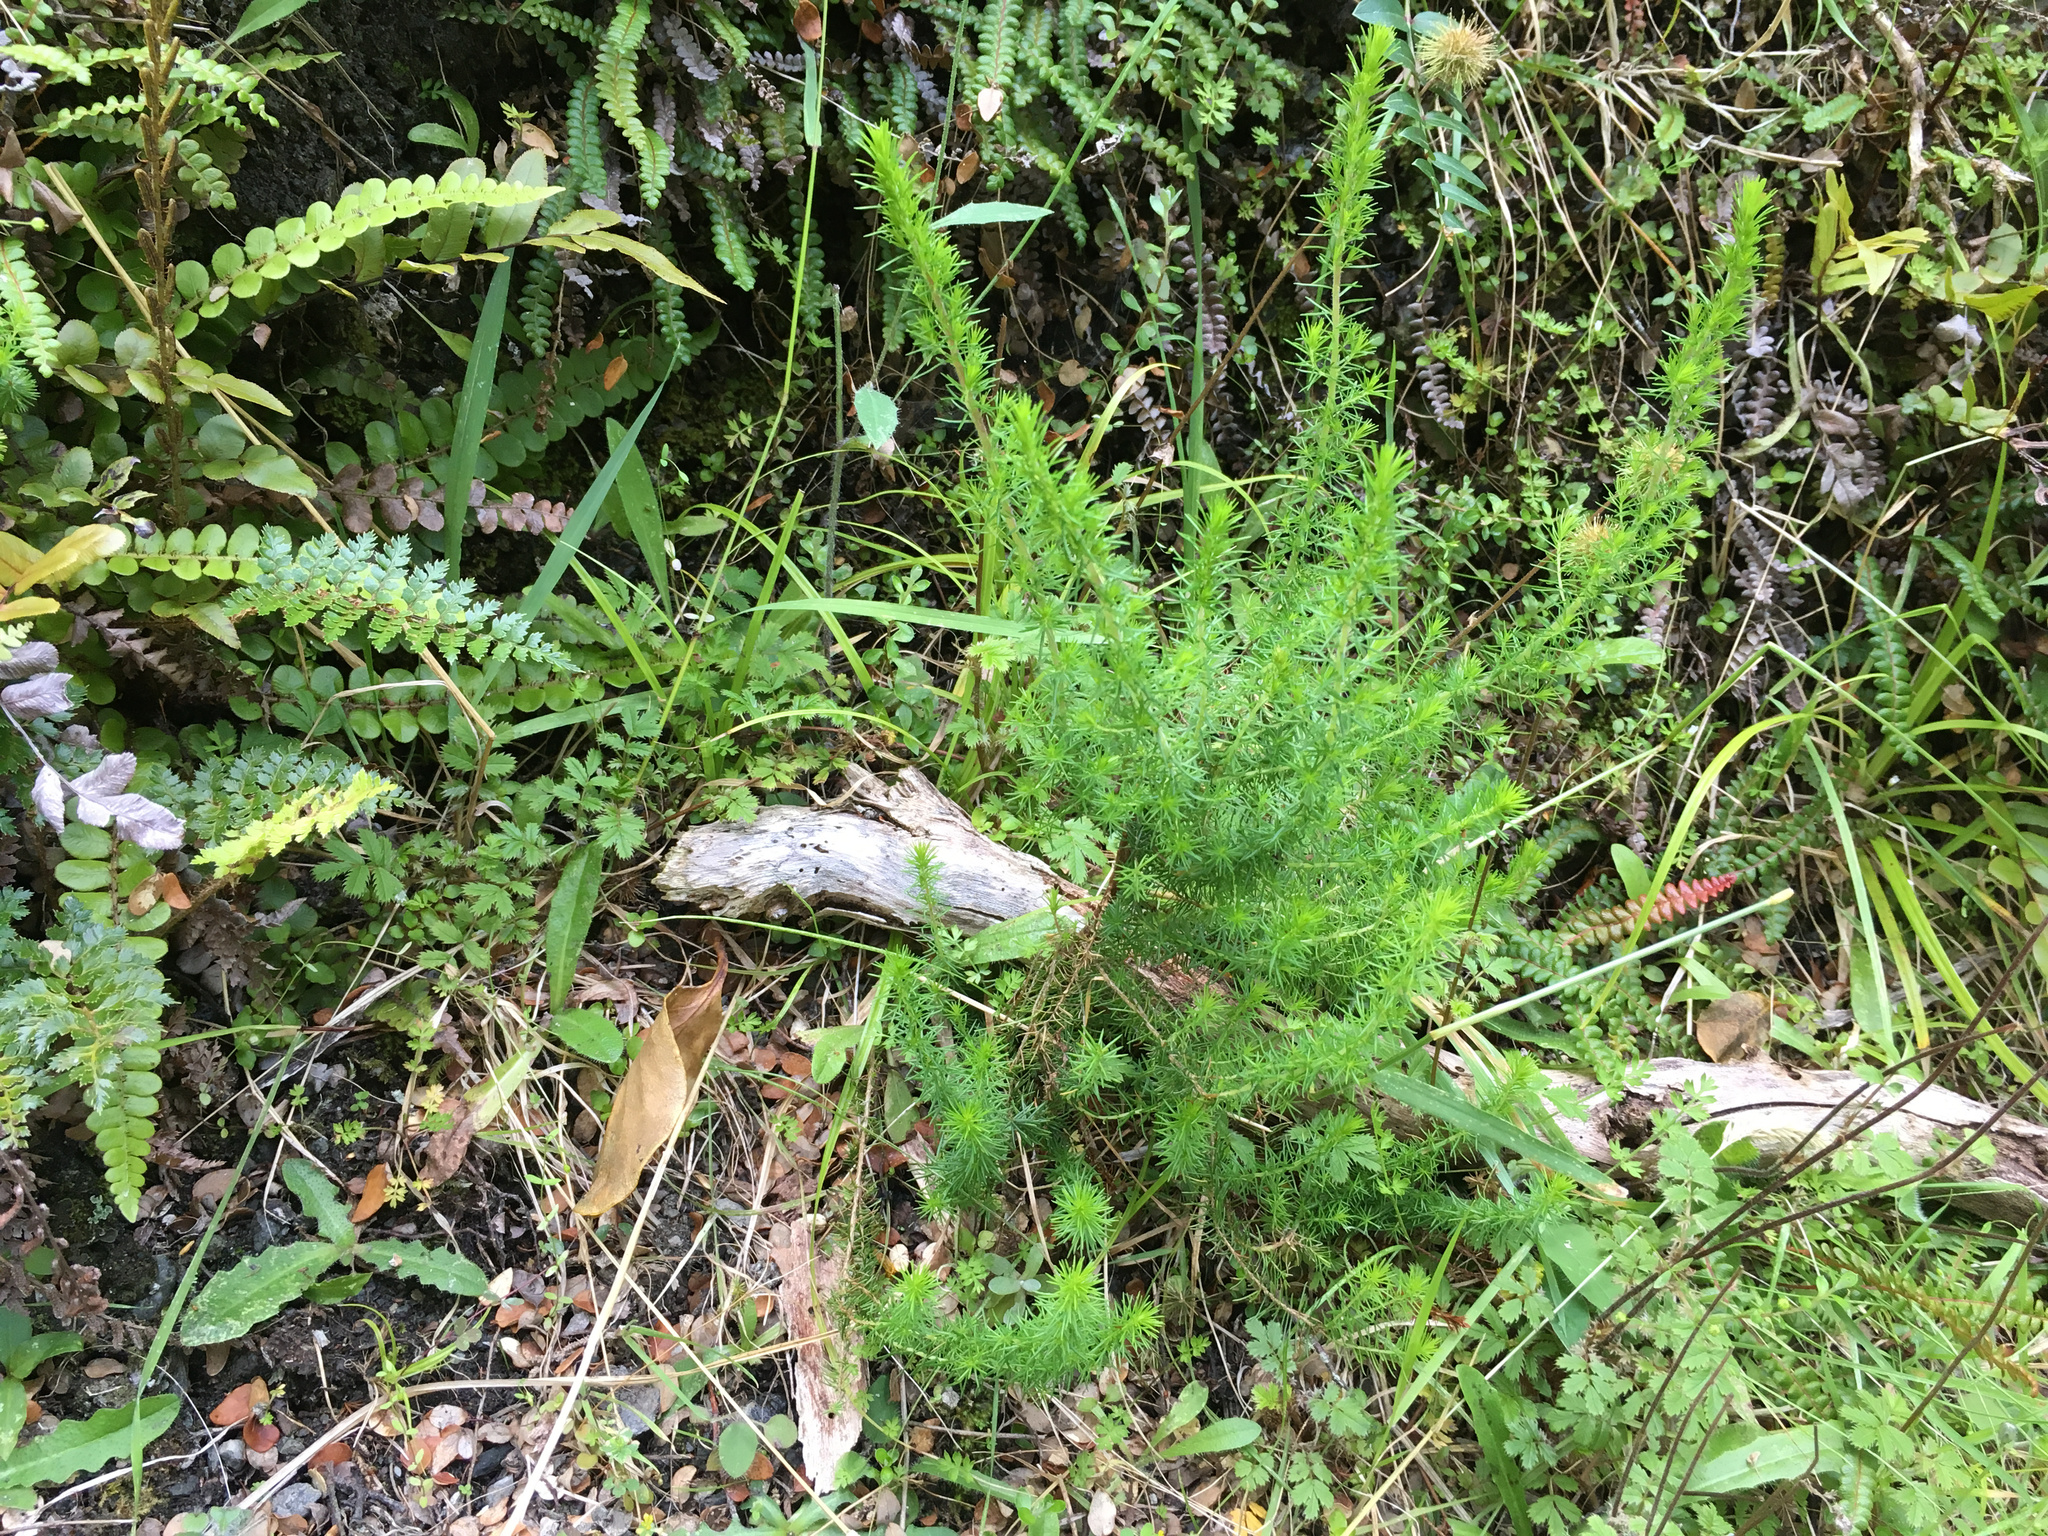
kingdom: Plantae
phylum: Tracheophyta
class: Magnoliopsida
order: Ericales
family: Ericaceae
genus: Erica
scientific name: Erica lusitanica
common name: Spanish heath
